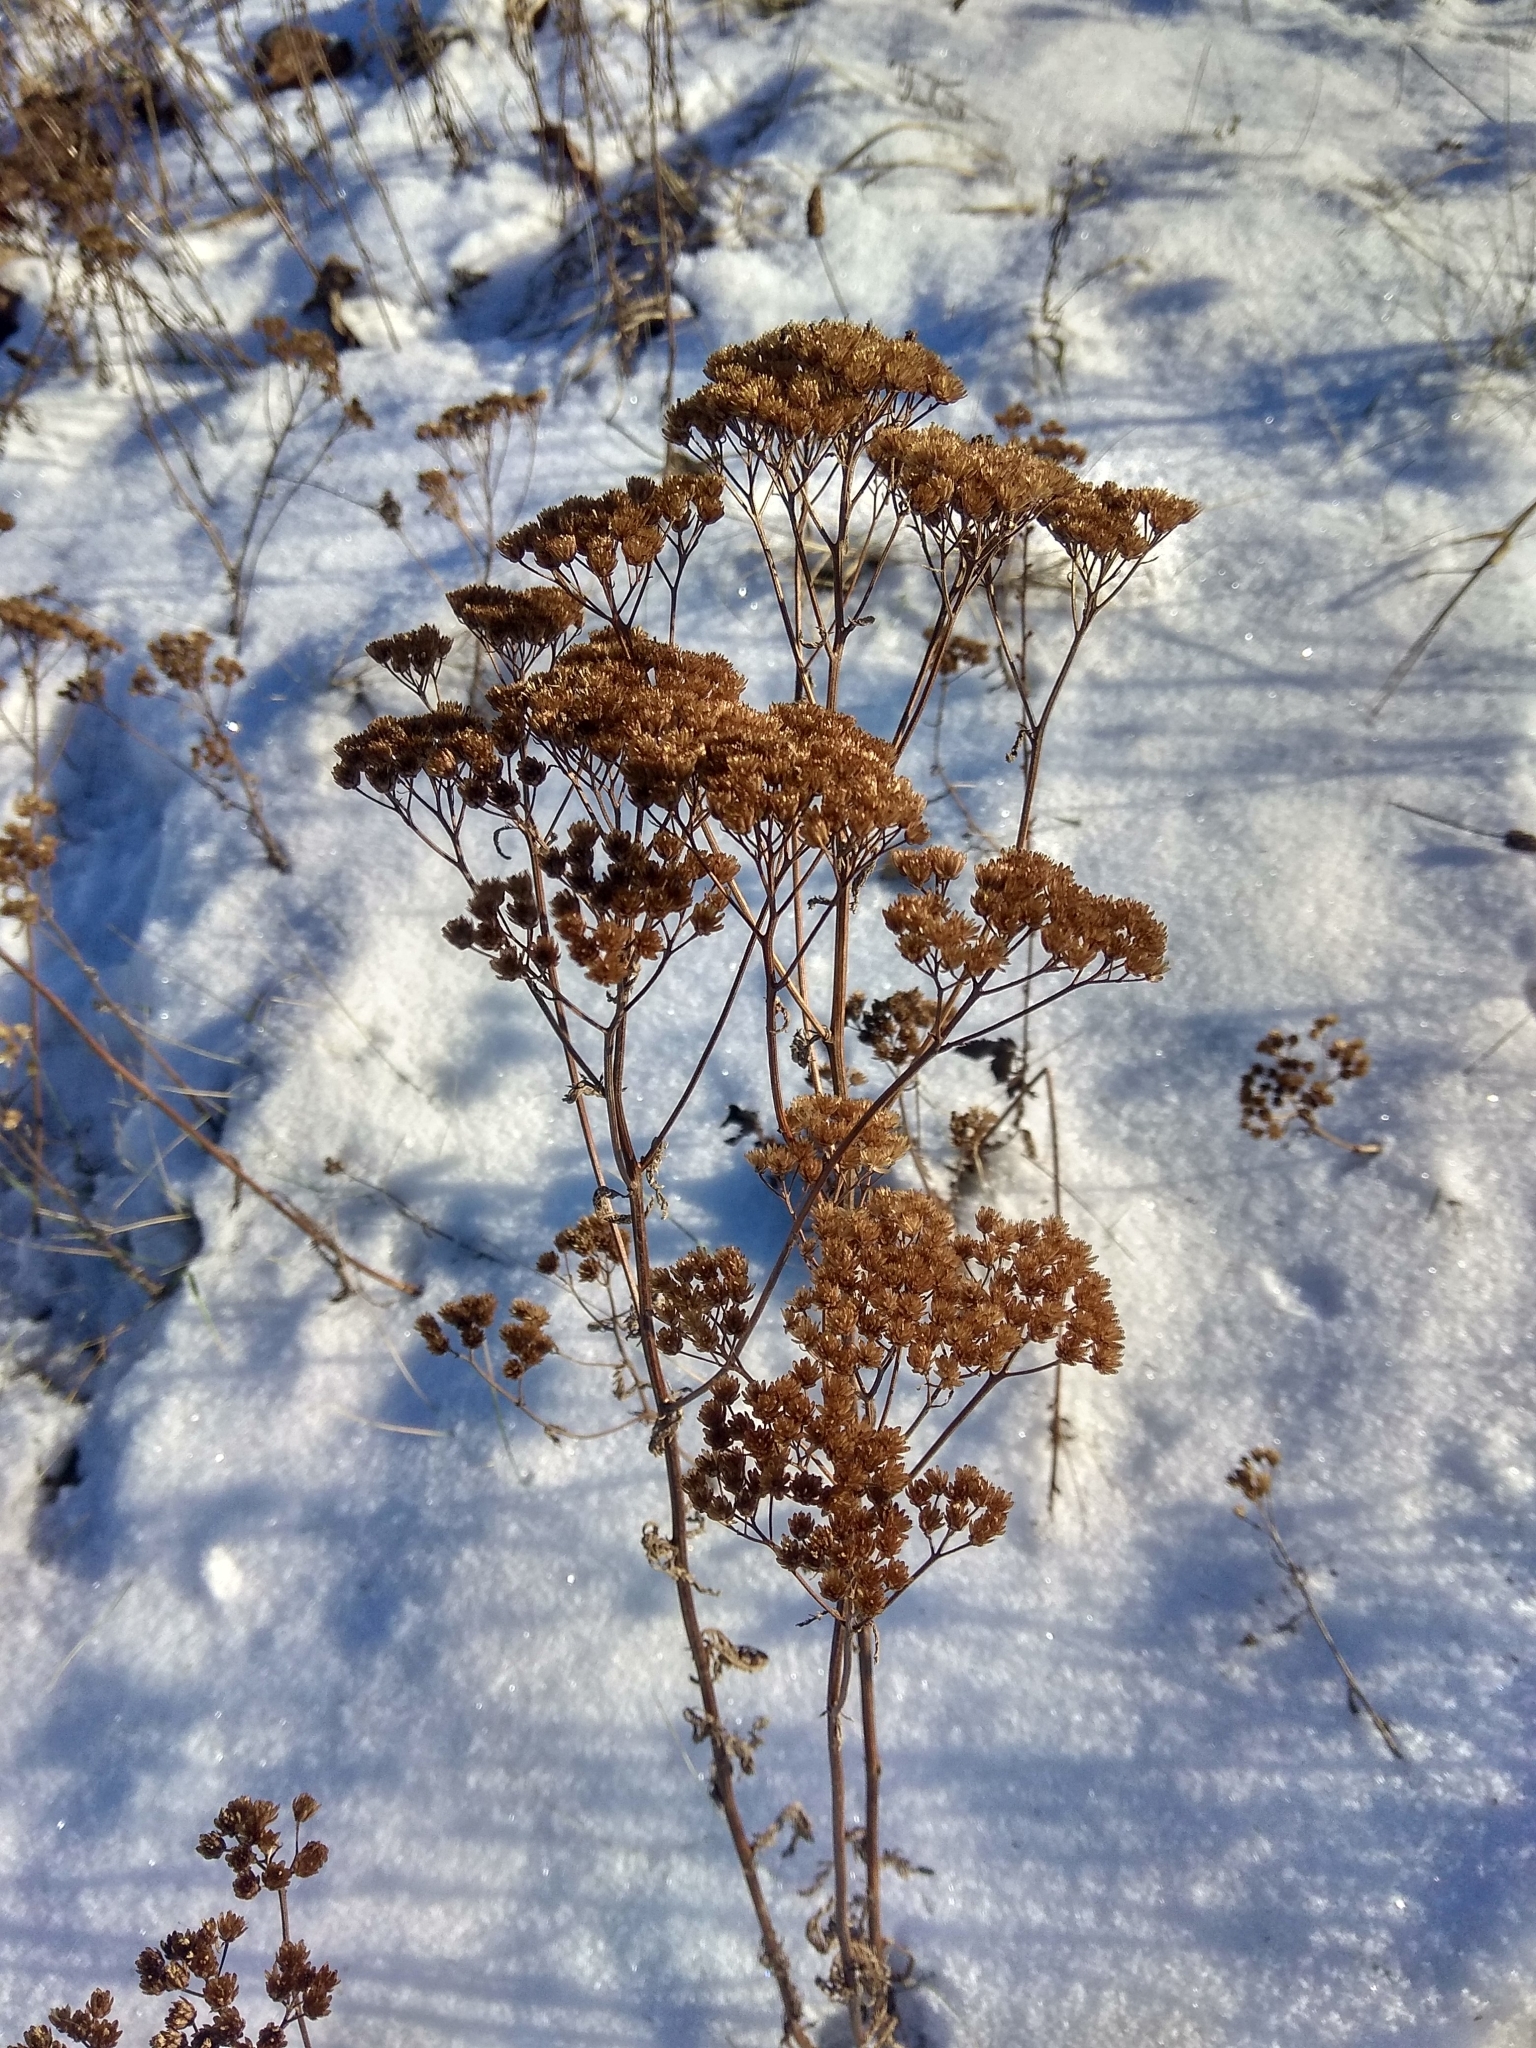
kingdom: Plantae
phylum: Tracheophyta
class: Magnoliopsida
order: Asterales
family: Asteraceae
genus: Achillea
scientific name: Achillea millefolium
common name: Yarrow
